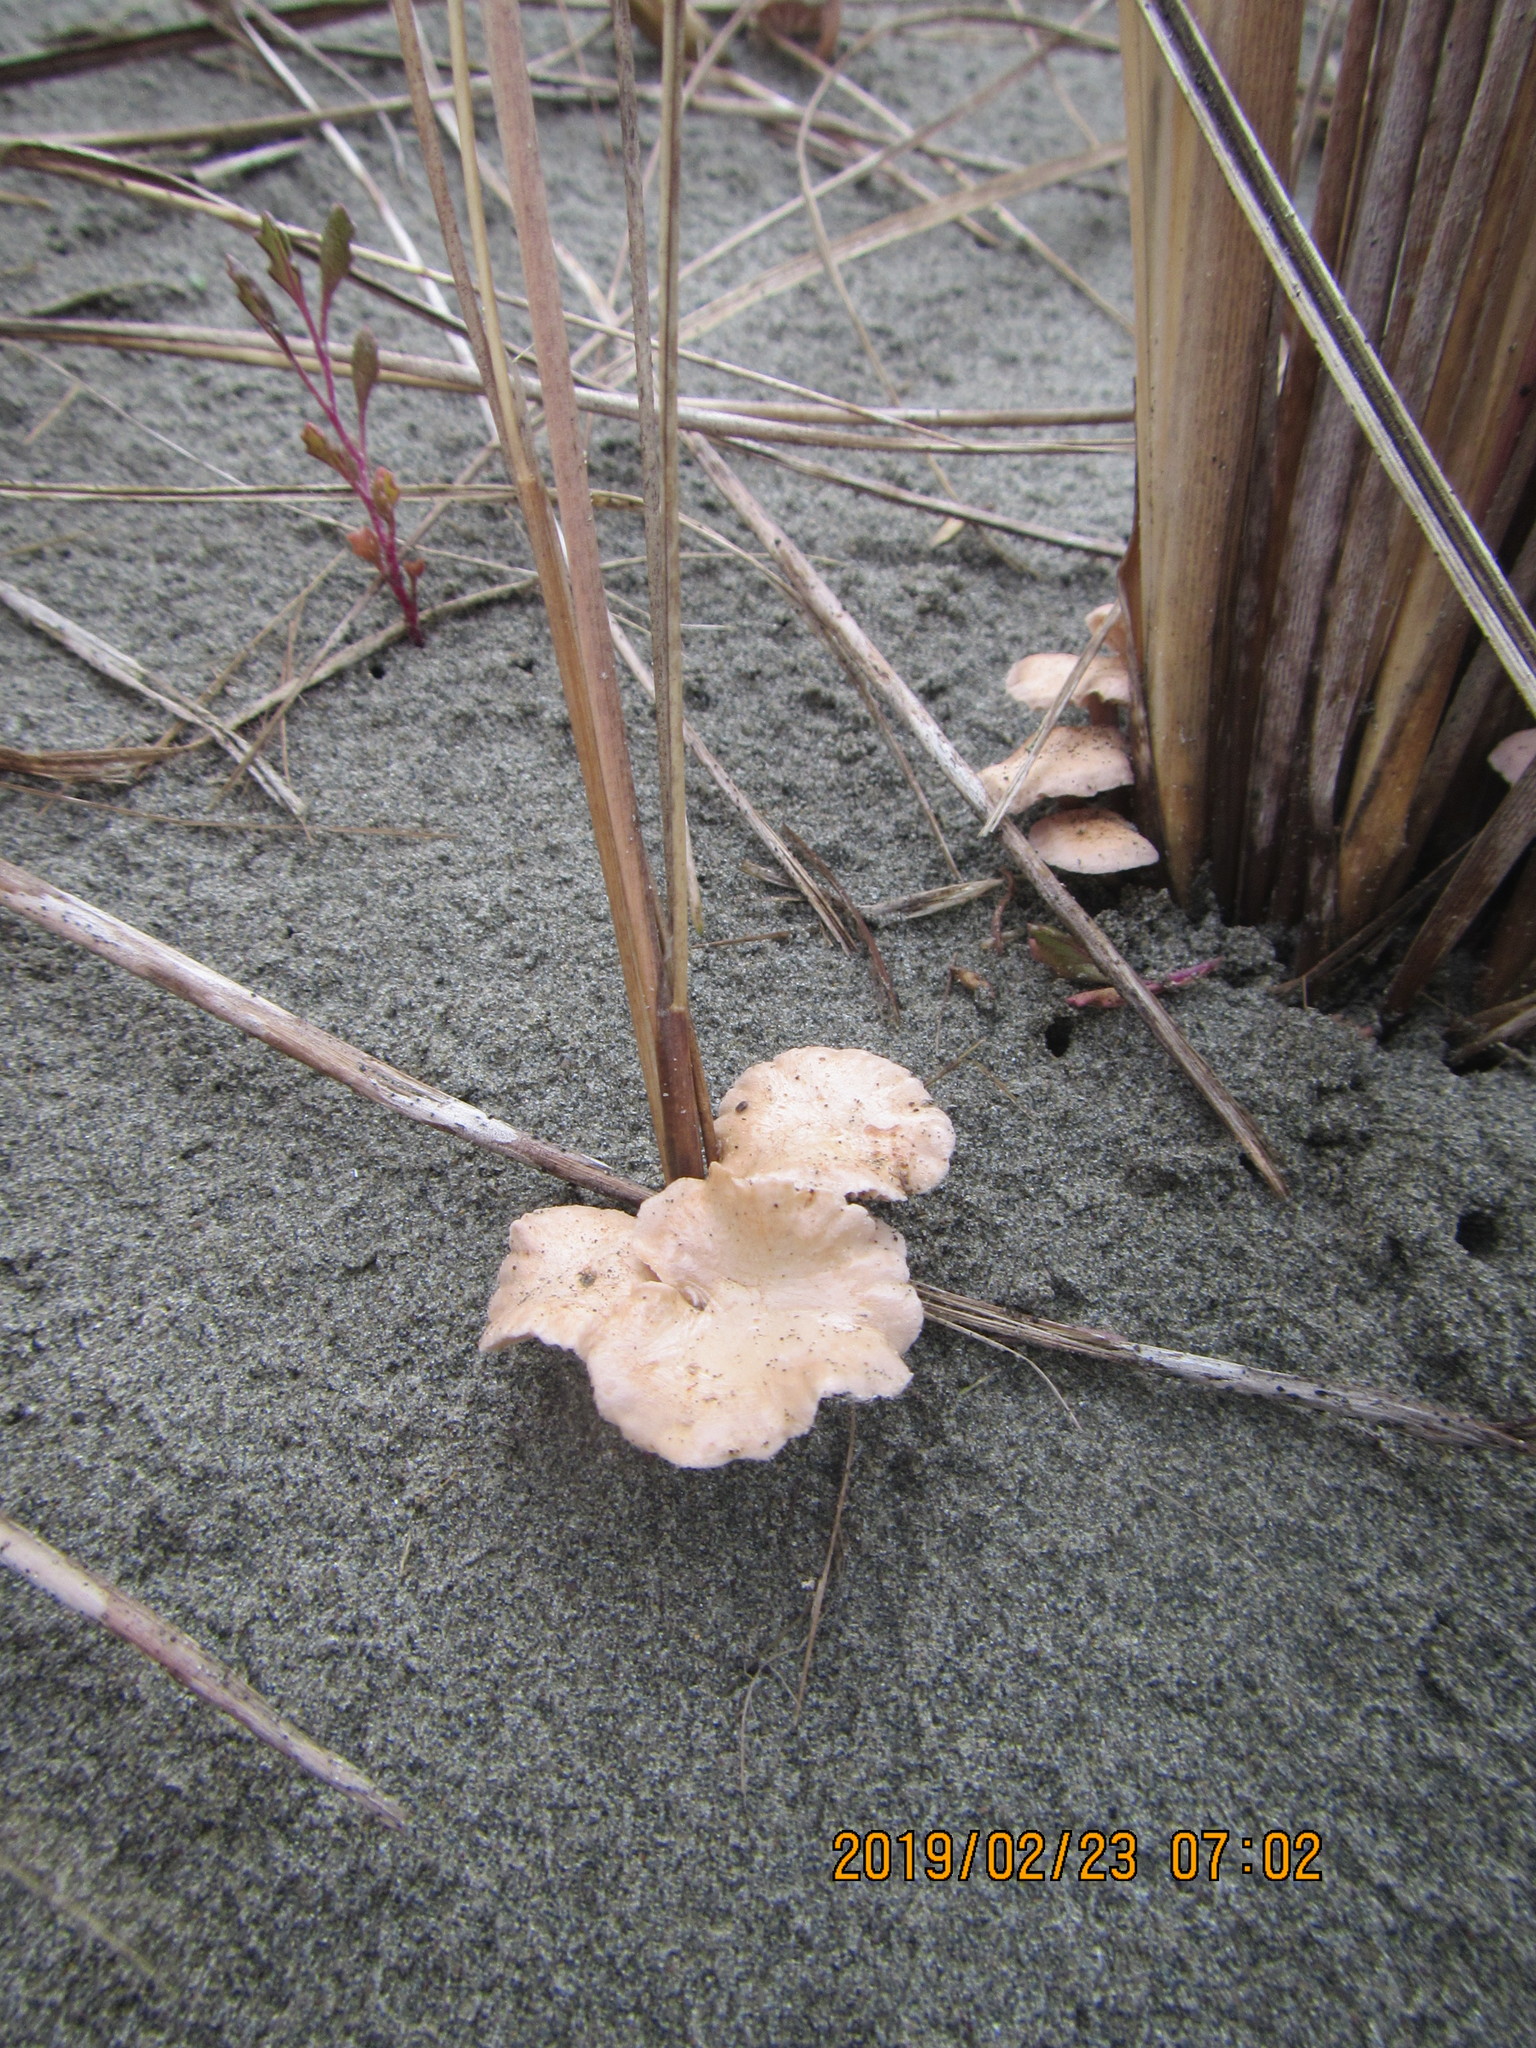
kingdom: Fungi
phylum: Basidiomycota
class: Agaricomycetes
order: Agaricales
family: Marasmiaceae
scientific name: Marasmiaceae
